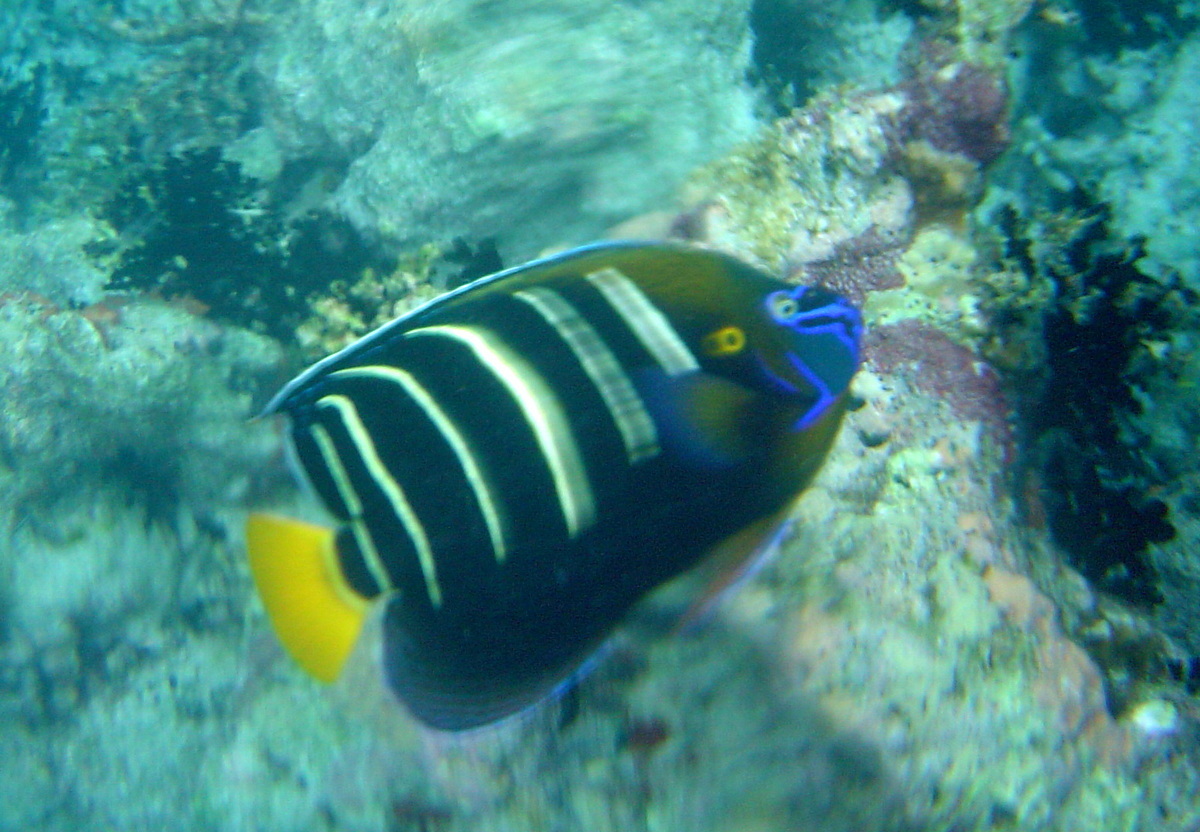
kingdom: Animalia
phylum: Chordata
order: Perciformes
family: Pomacanthidae
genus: Pomacanthus
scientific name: Pomacanthus chrysurus
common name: Goldtail angelfish
